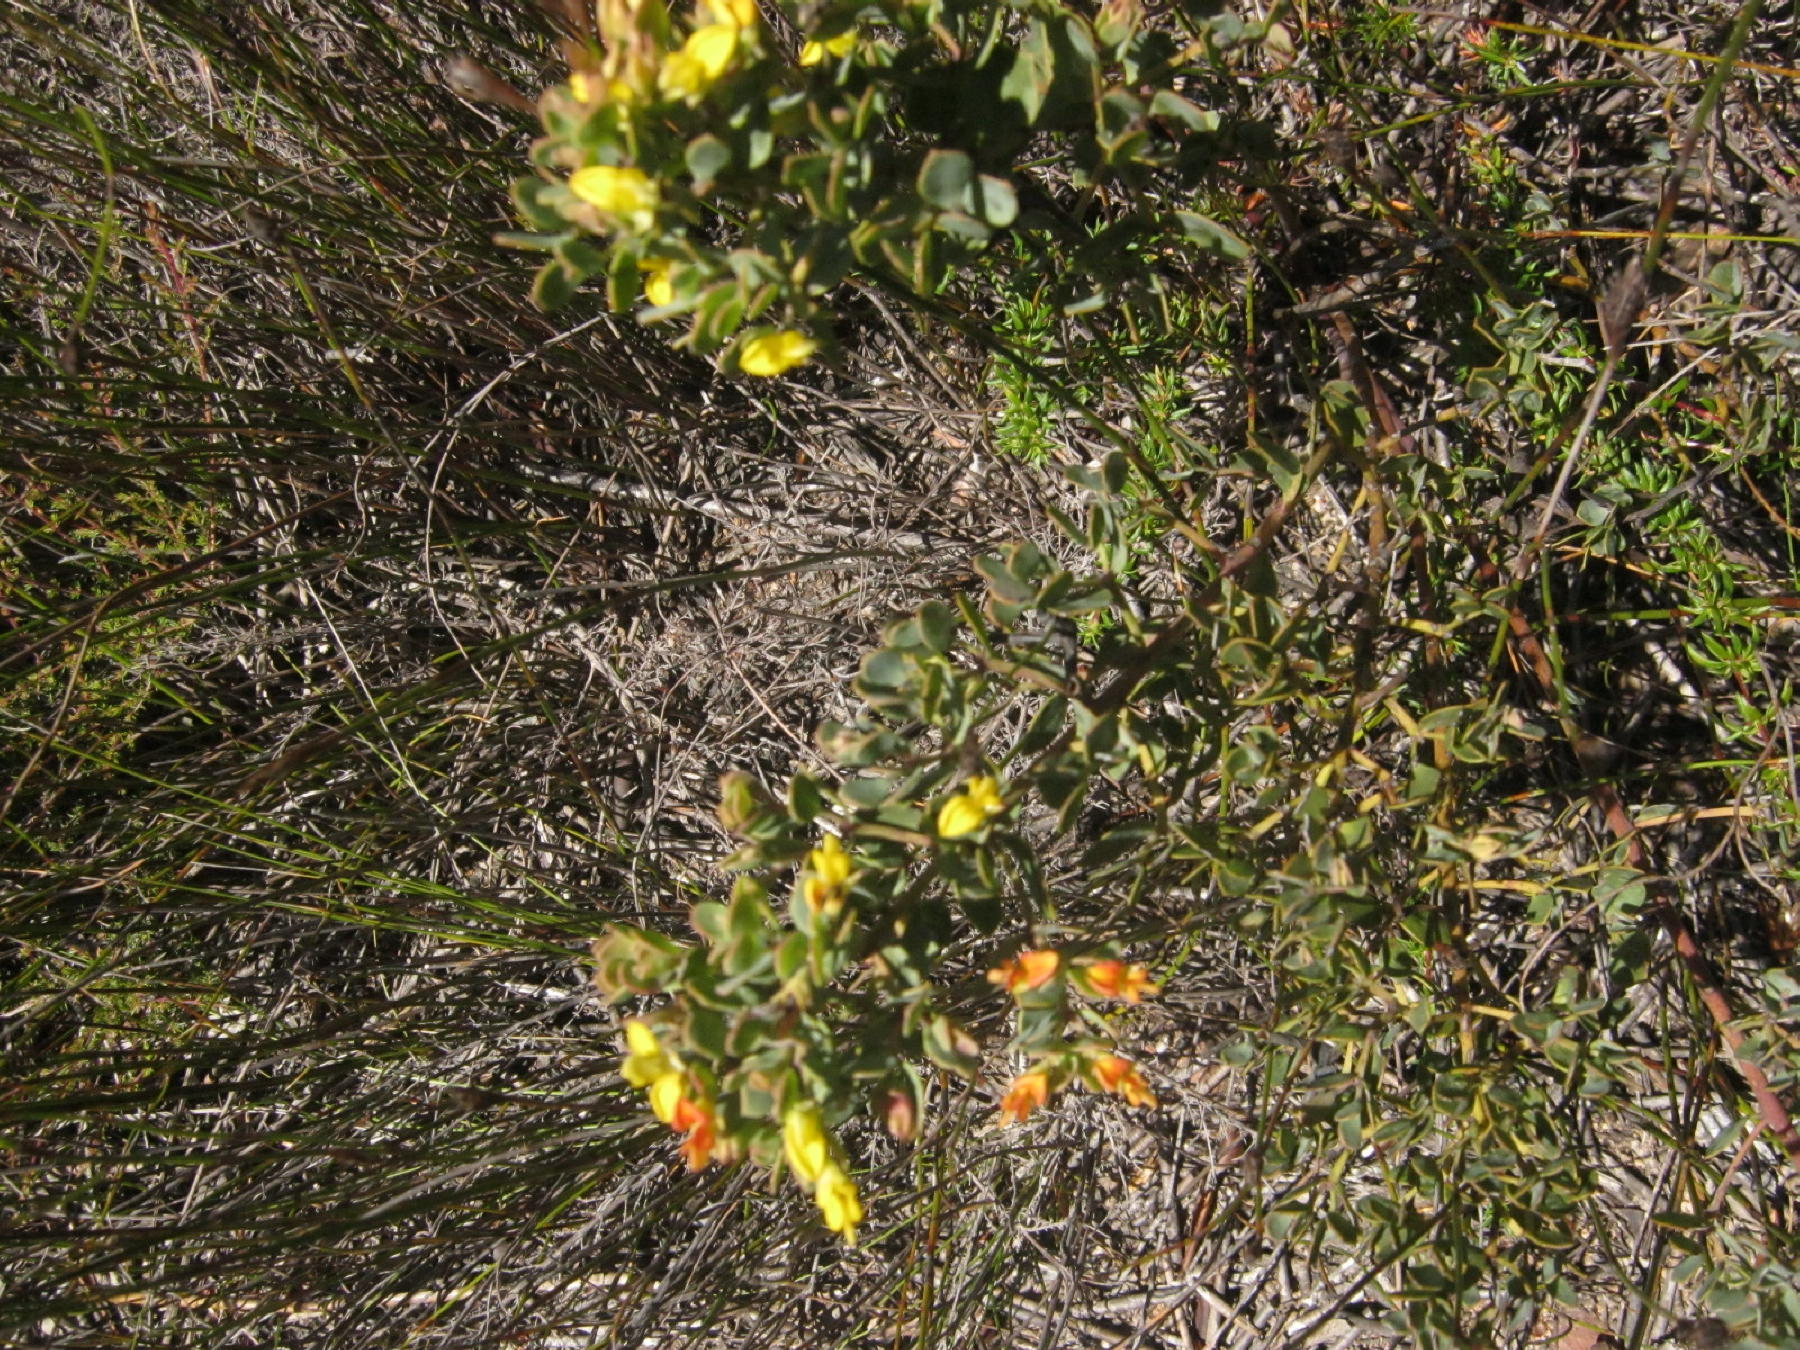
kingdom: Plantae
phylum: Tracheophyta
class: Magnoliopsida
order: Fabales
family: Fabaceae
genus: Rafnia
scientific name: Rafnia capensis
